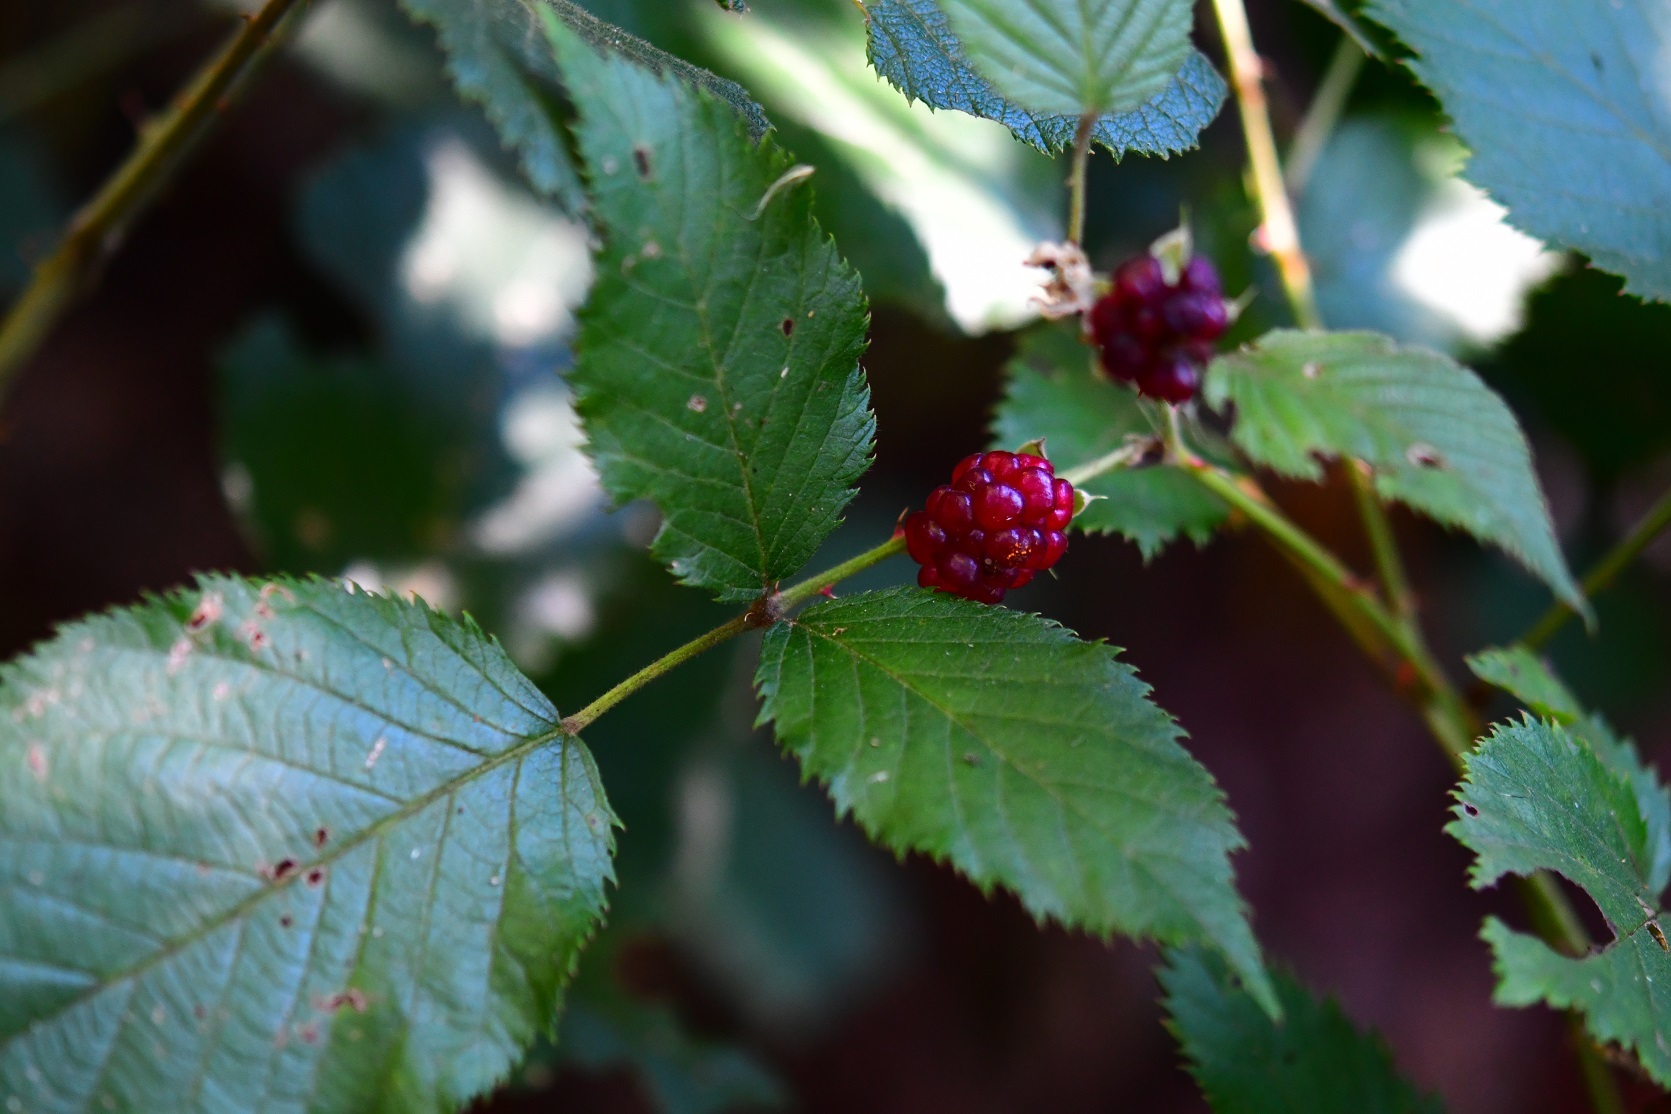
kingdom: Plantae
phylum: Tracheophyta
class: Magnoliopsida
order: Rosales
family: Rosaceae
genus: Rubus
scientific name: Rubus pringlei
